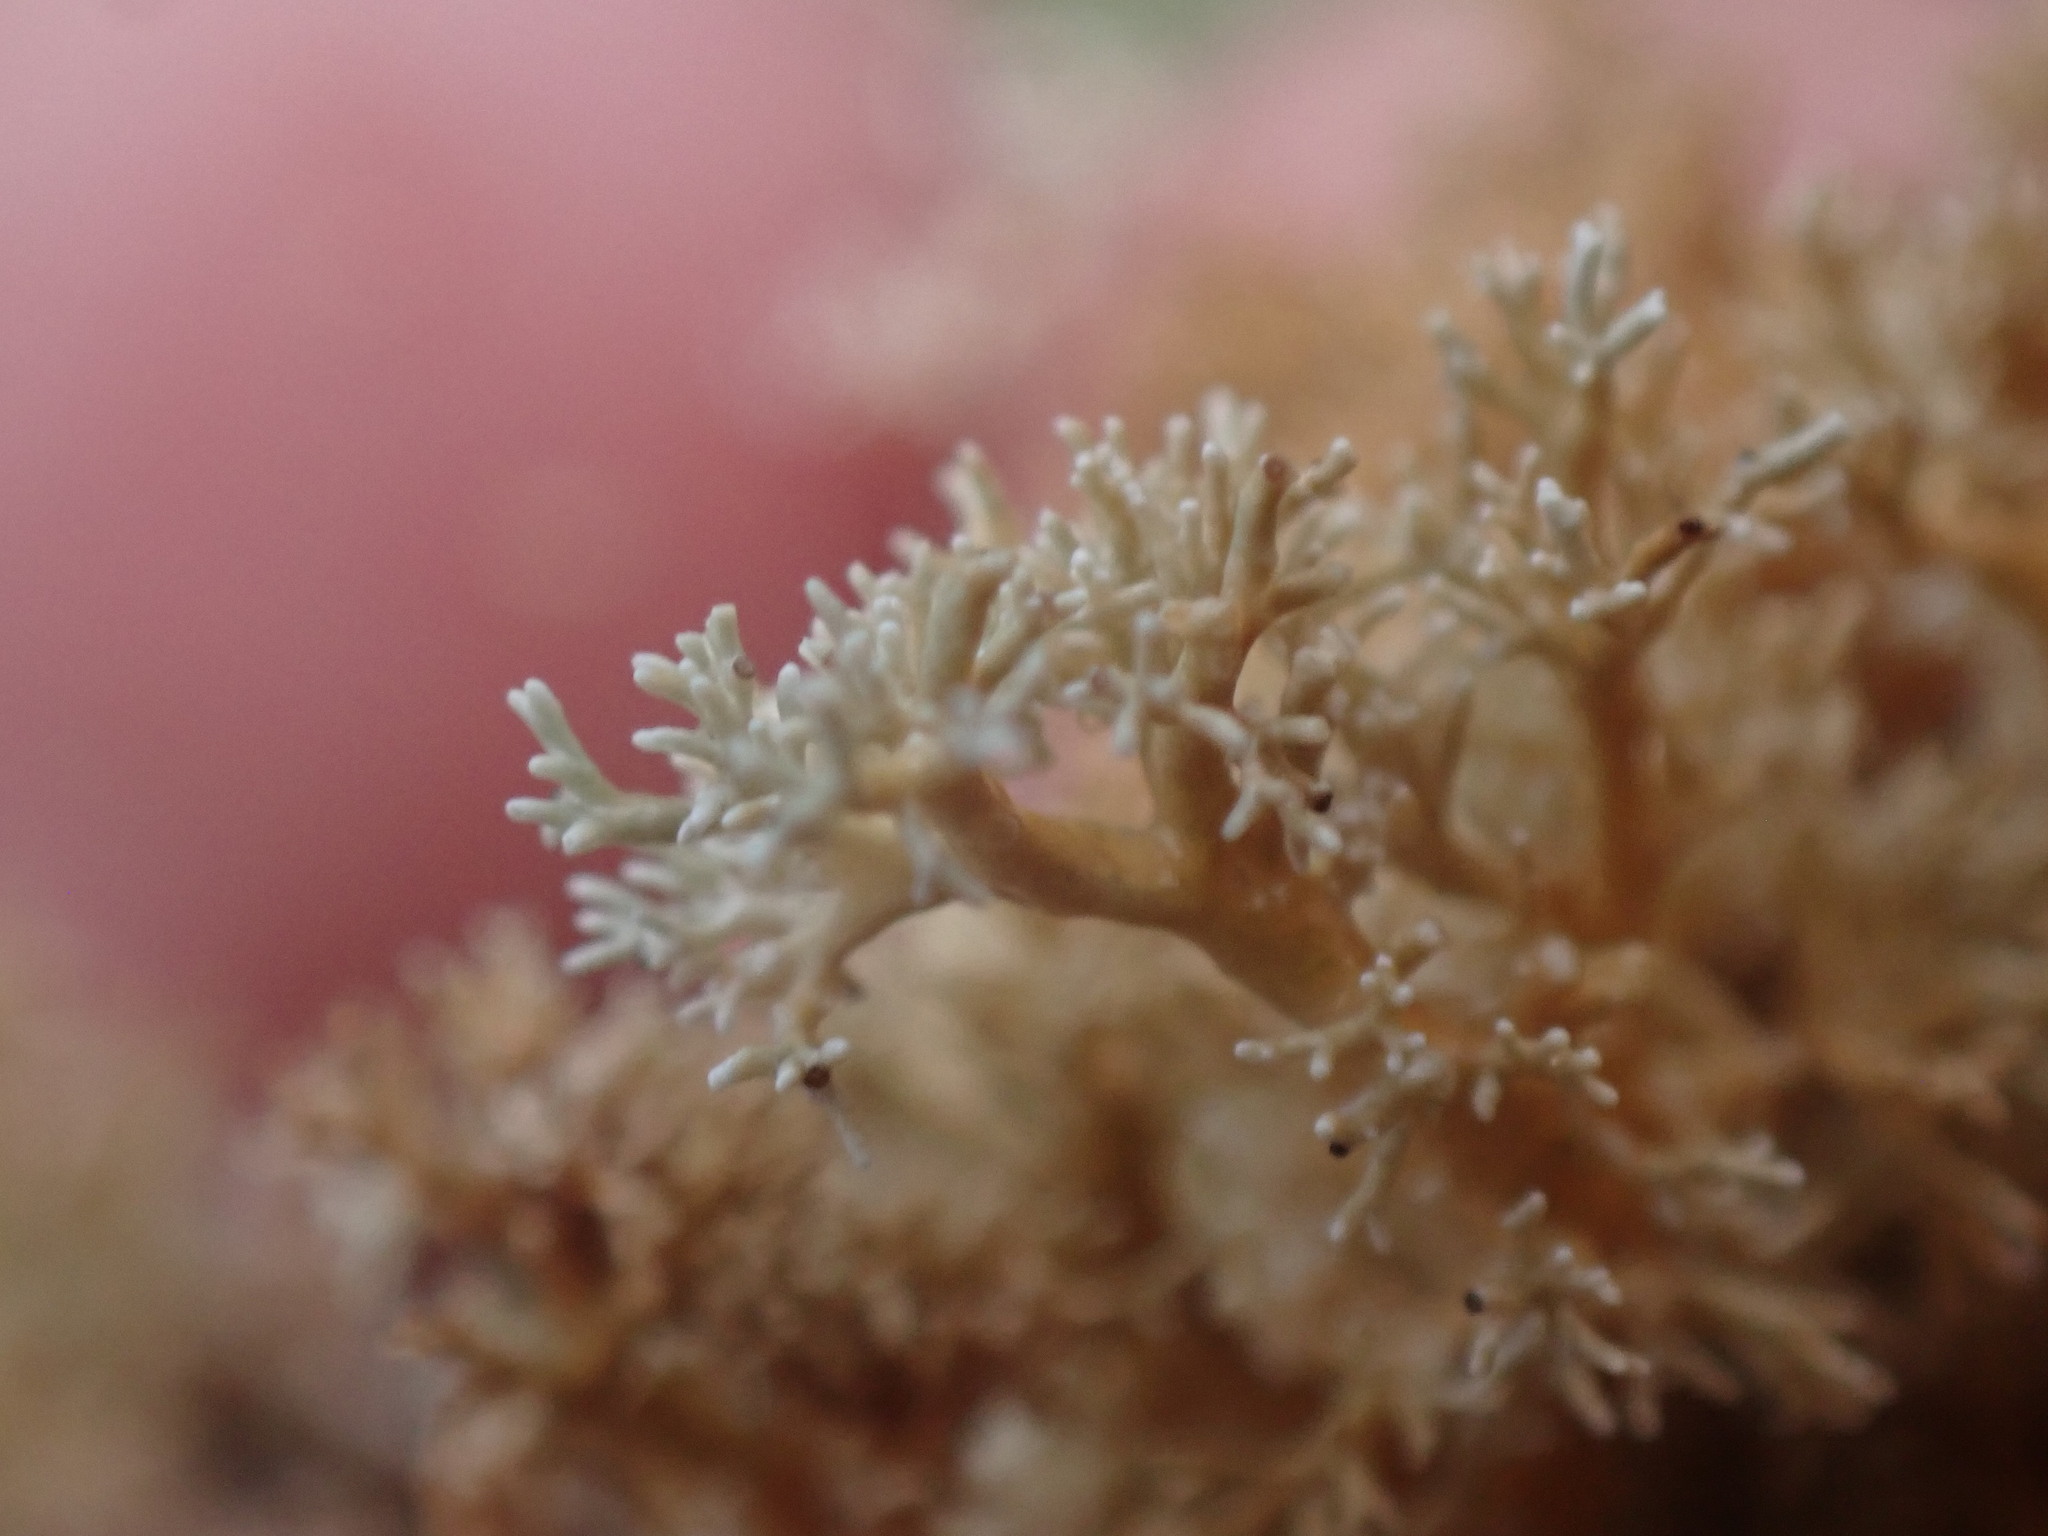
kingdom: Fungi
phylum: Ascomycota
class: Lecanoromycetes
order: Lecanorales
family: Sphaerophoraceae
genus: Sphaerophorus
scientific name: Sphaerophorus globosus
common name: Globe ball lichen
